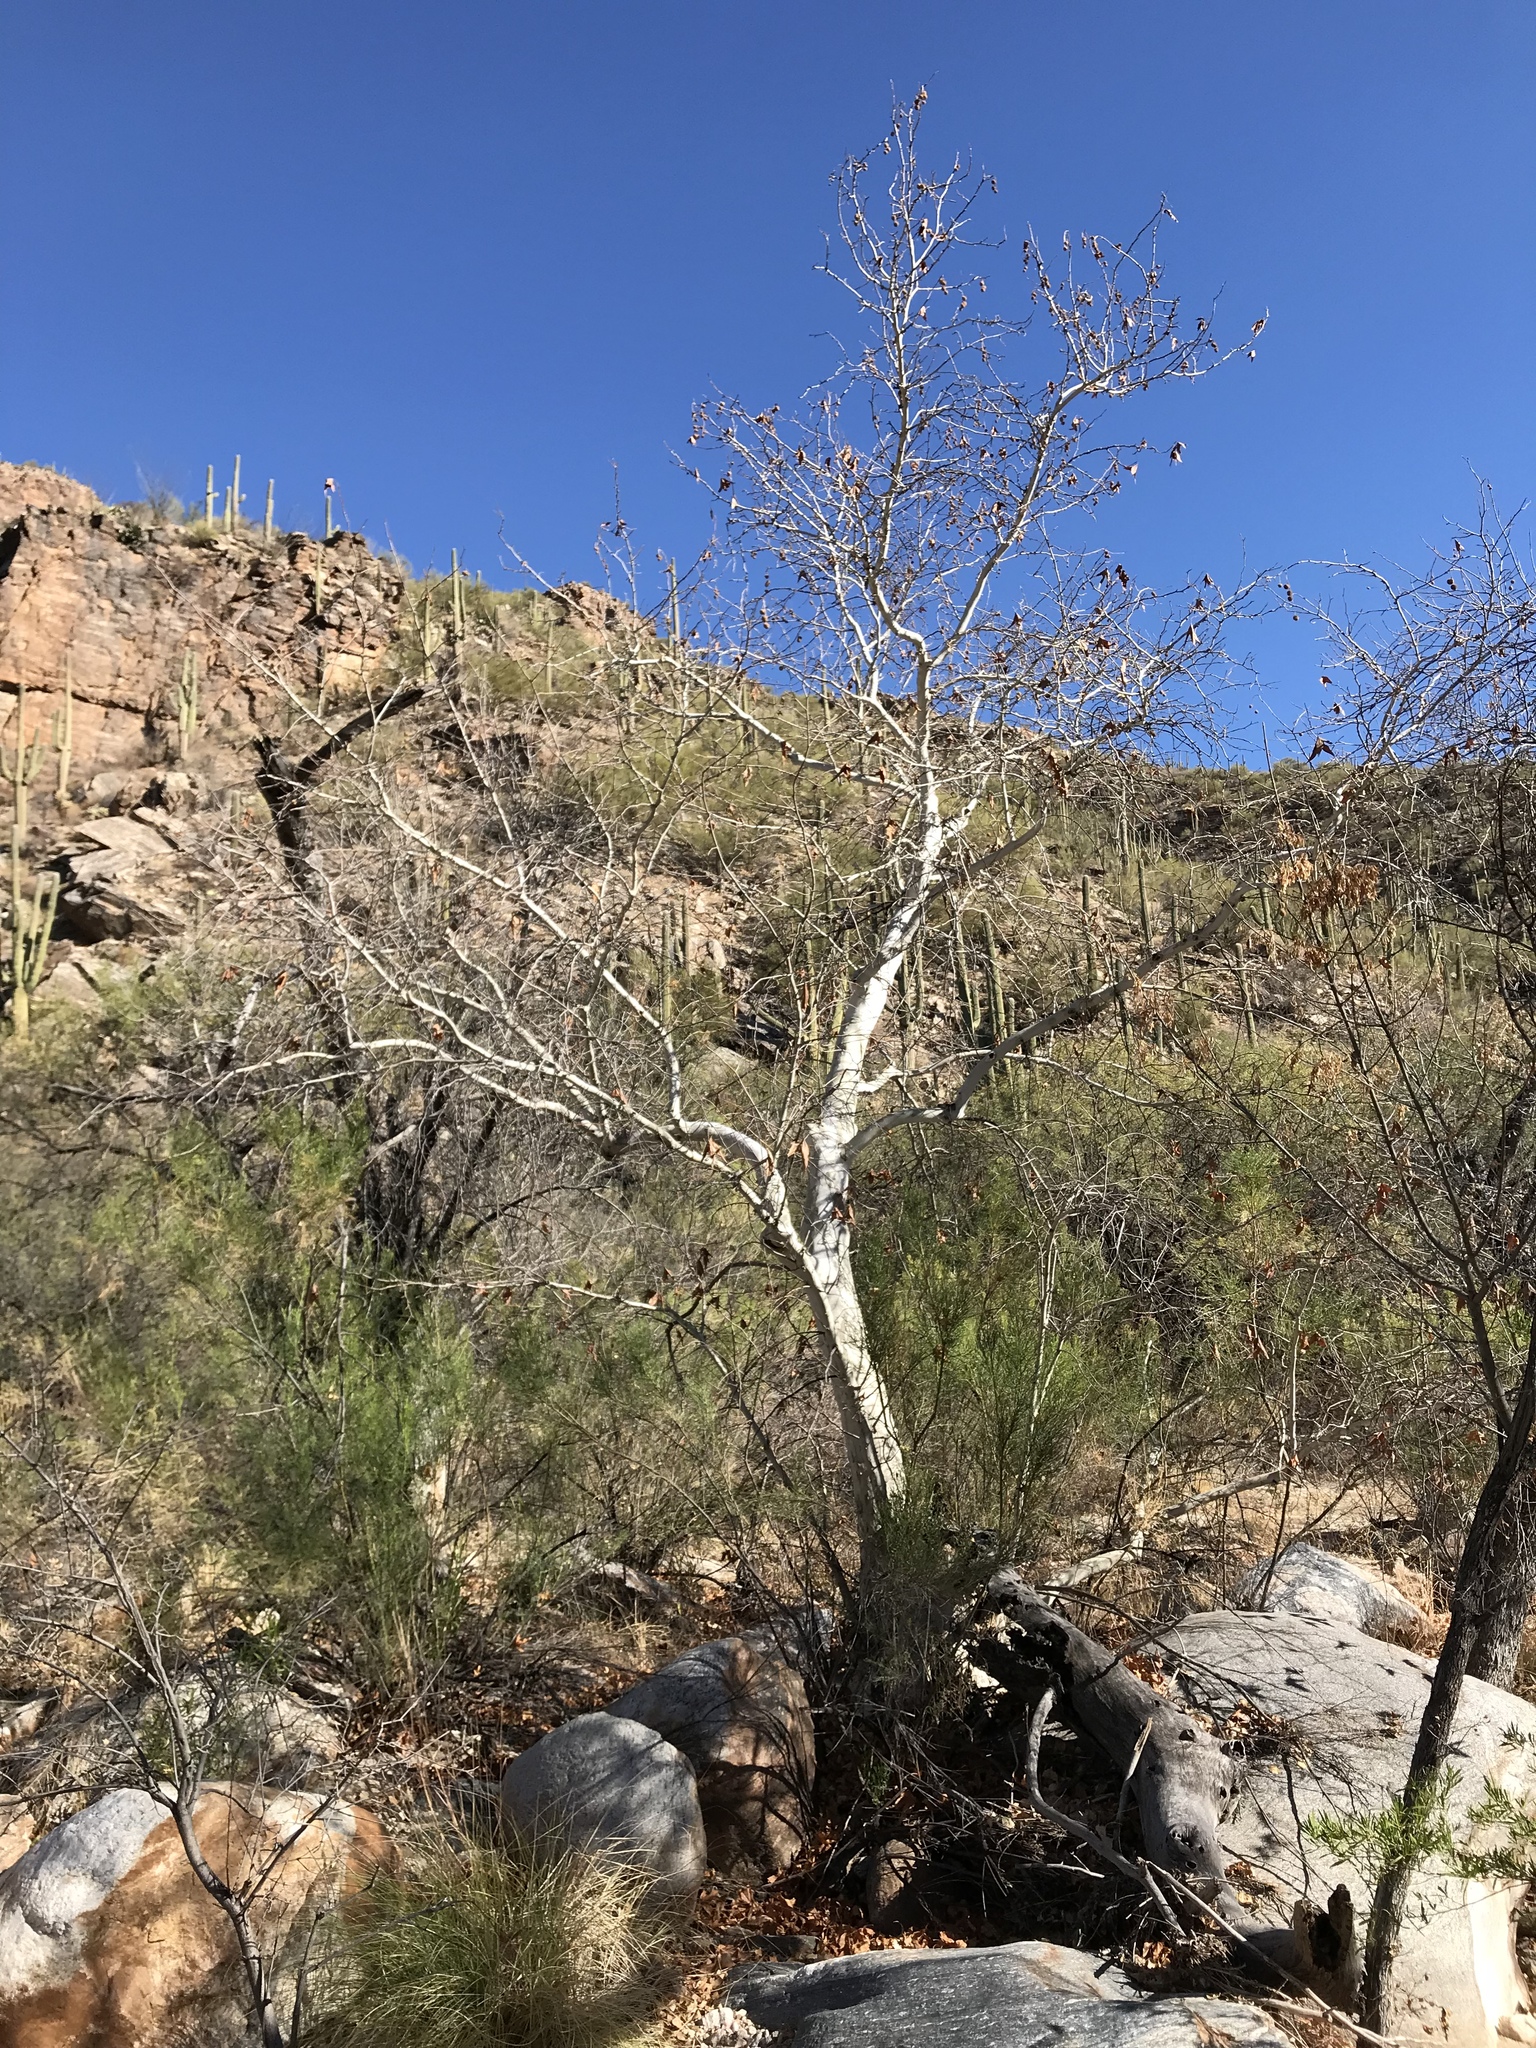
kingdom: Plantae
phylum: Tracheophyta
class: Magnoliopsida
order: Proteales
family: Platanaceae
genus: Platanus
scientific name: Platanus wrightii
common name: Arizona sycamore
